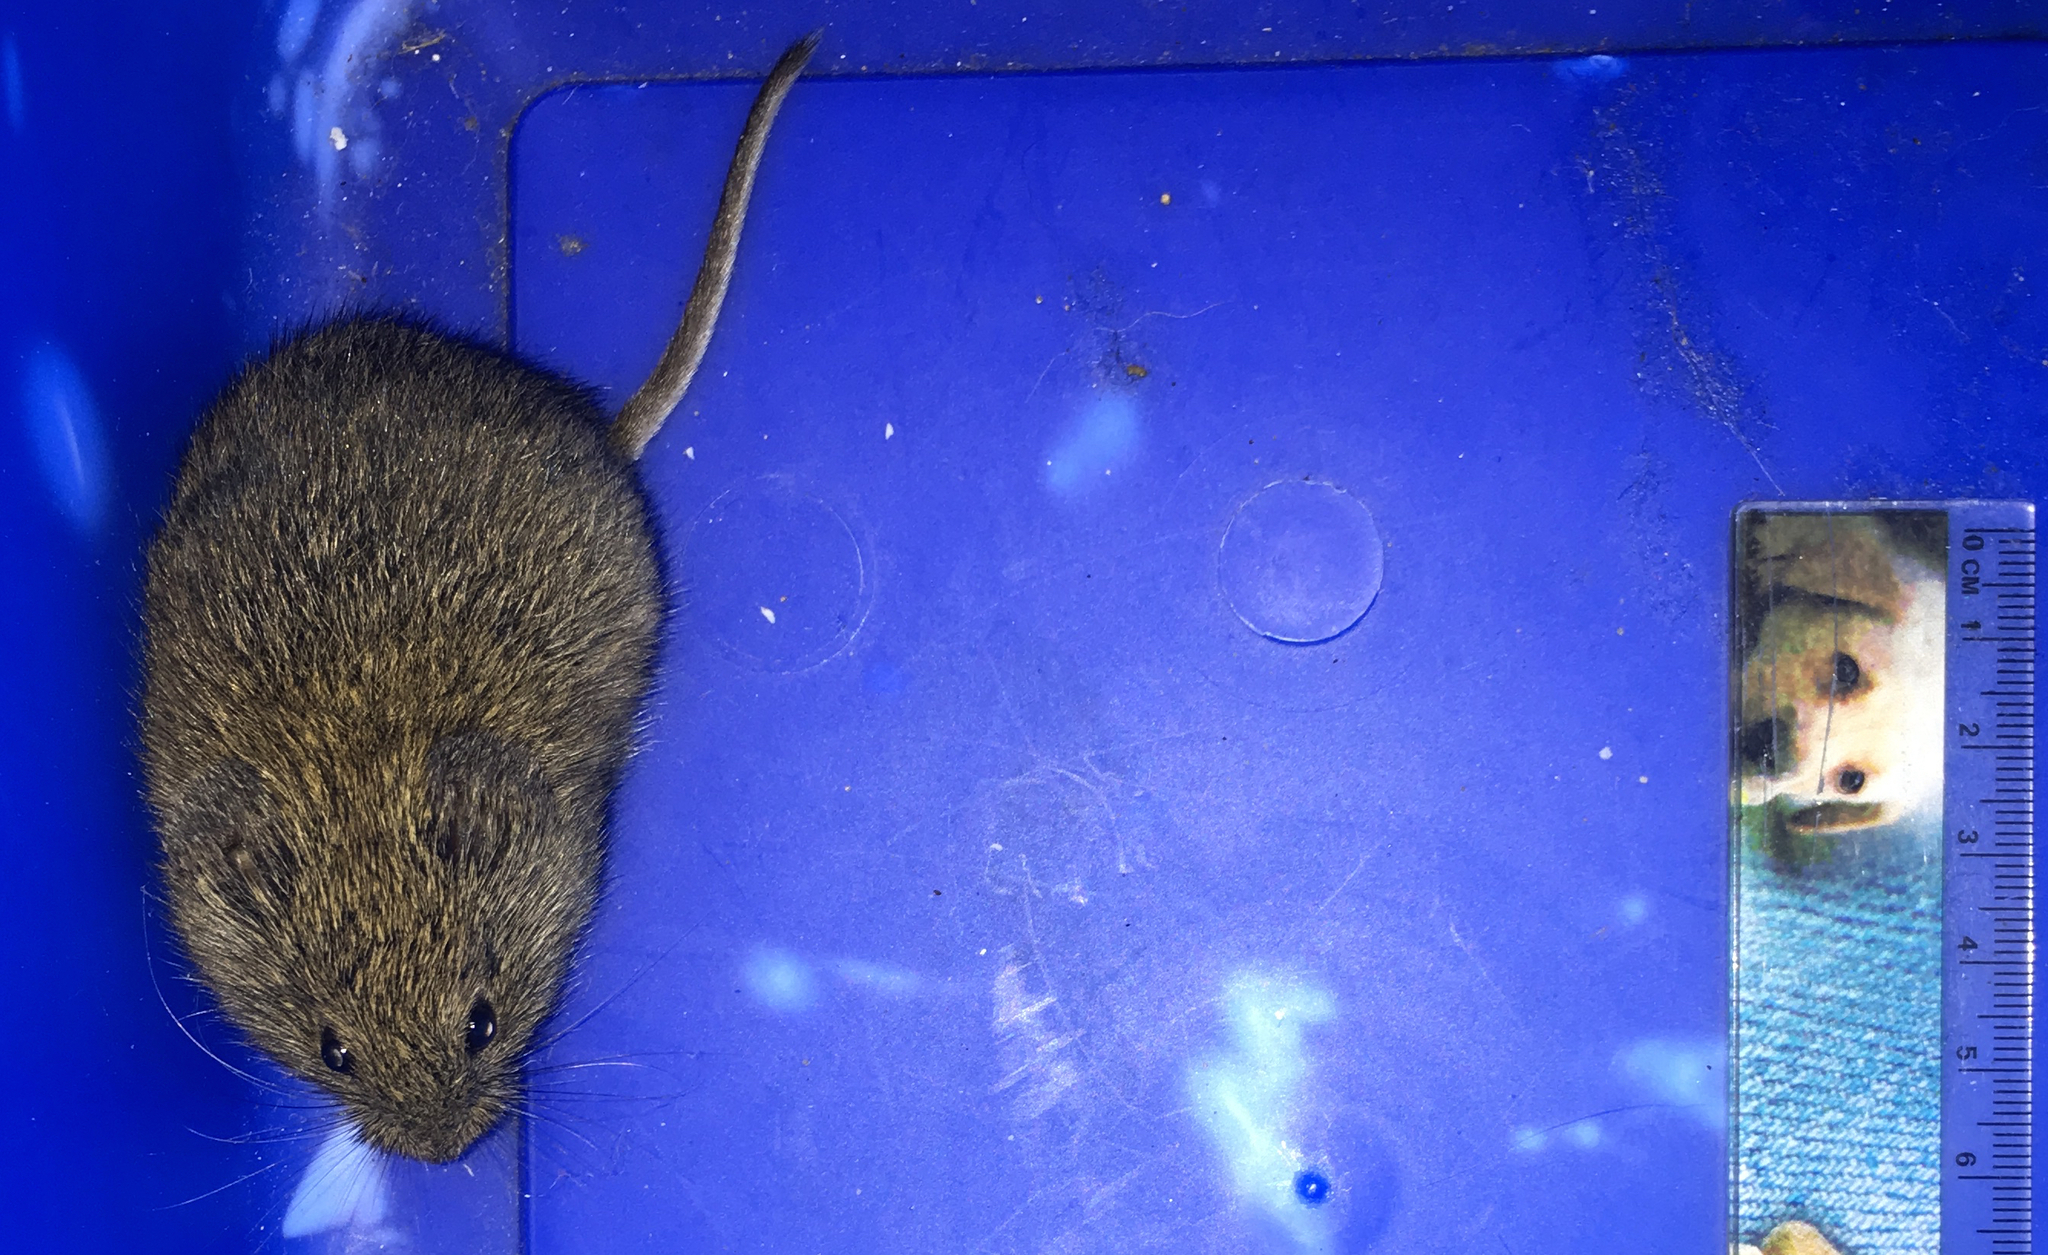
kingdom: Animalia
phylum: Chordata
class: Mammalia
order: Rodentia
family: Cricetidae
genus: Microtus
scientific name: Microtus californicus
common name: California vole
